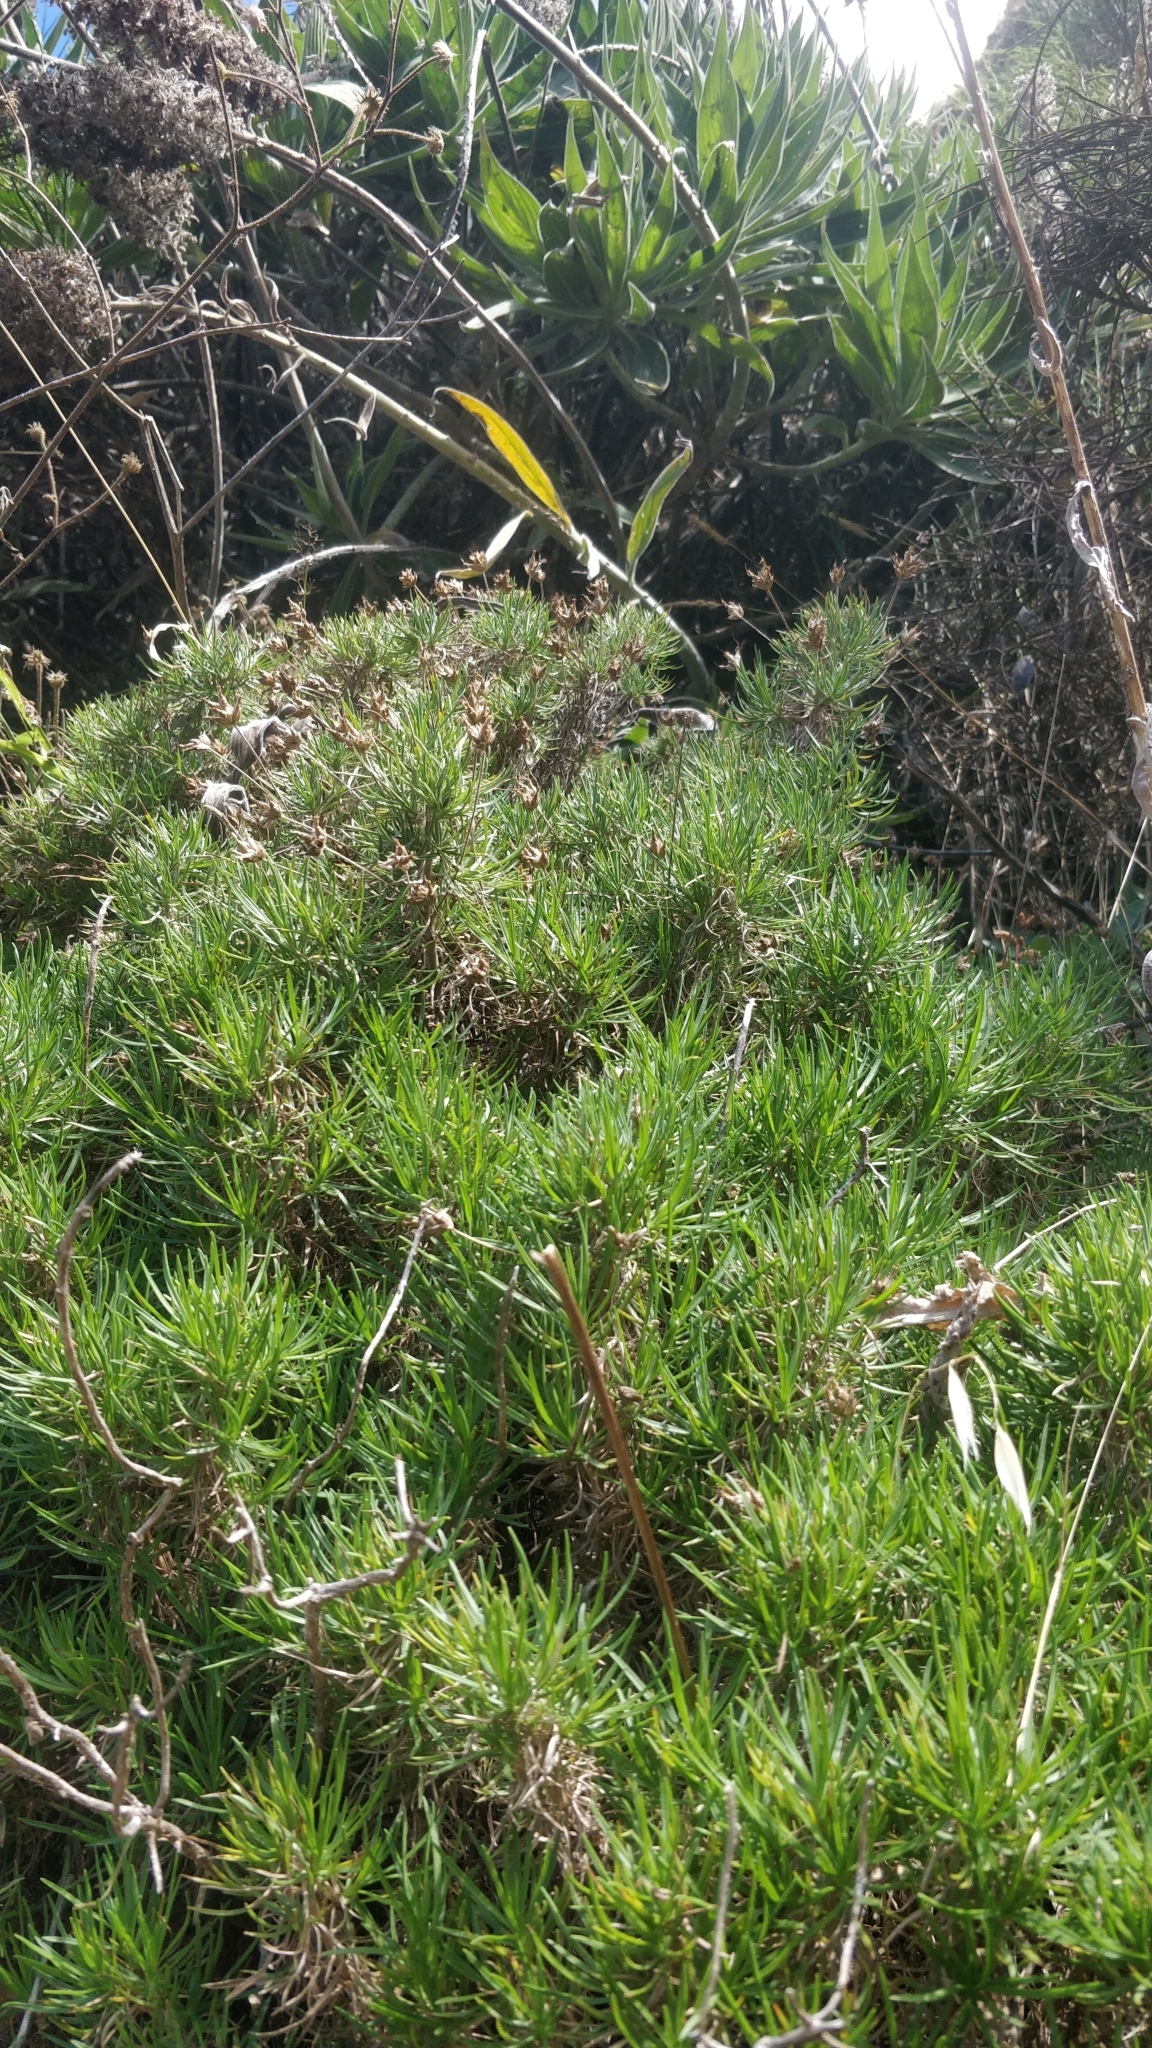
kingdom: Plantae
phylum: Tracheophyta
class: Magnoliopsida
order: Lamiales
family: Plantaginaceae
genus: Plantago
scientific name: Plantago arborescens
